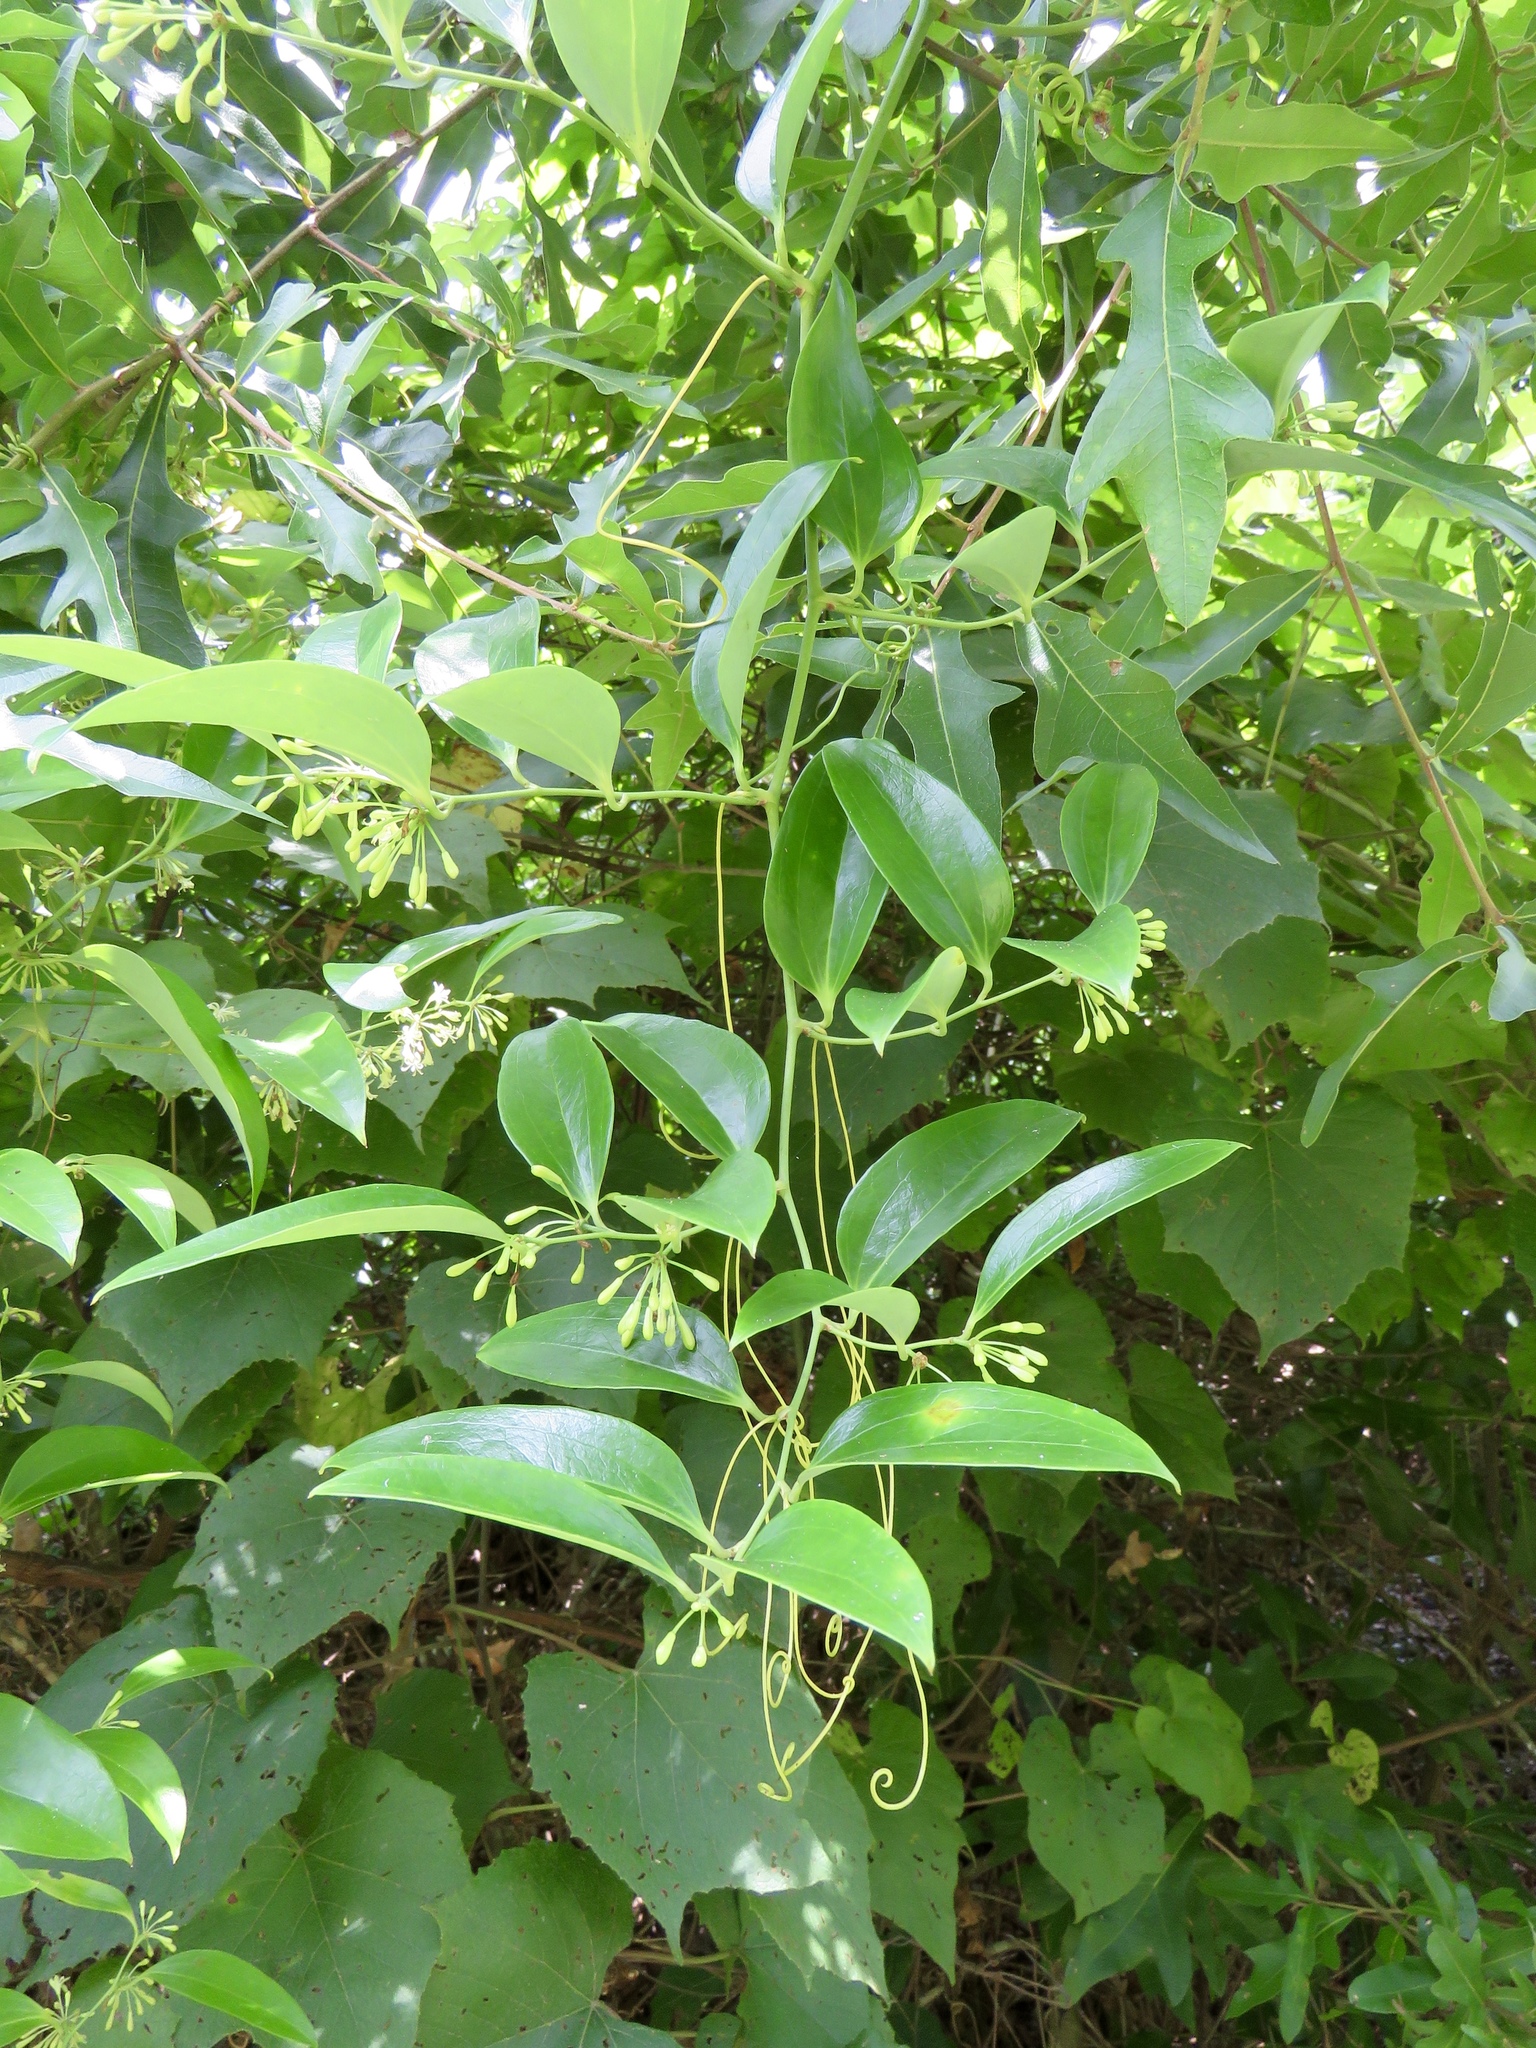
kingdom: Plantae
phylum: Tracheophyta
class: Liliopsida
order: Liliales
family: Smilacaceae
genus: Smilax
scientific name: Smilax laurifolia
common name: Bamboovine
